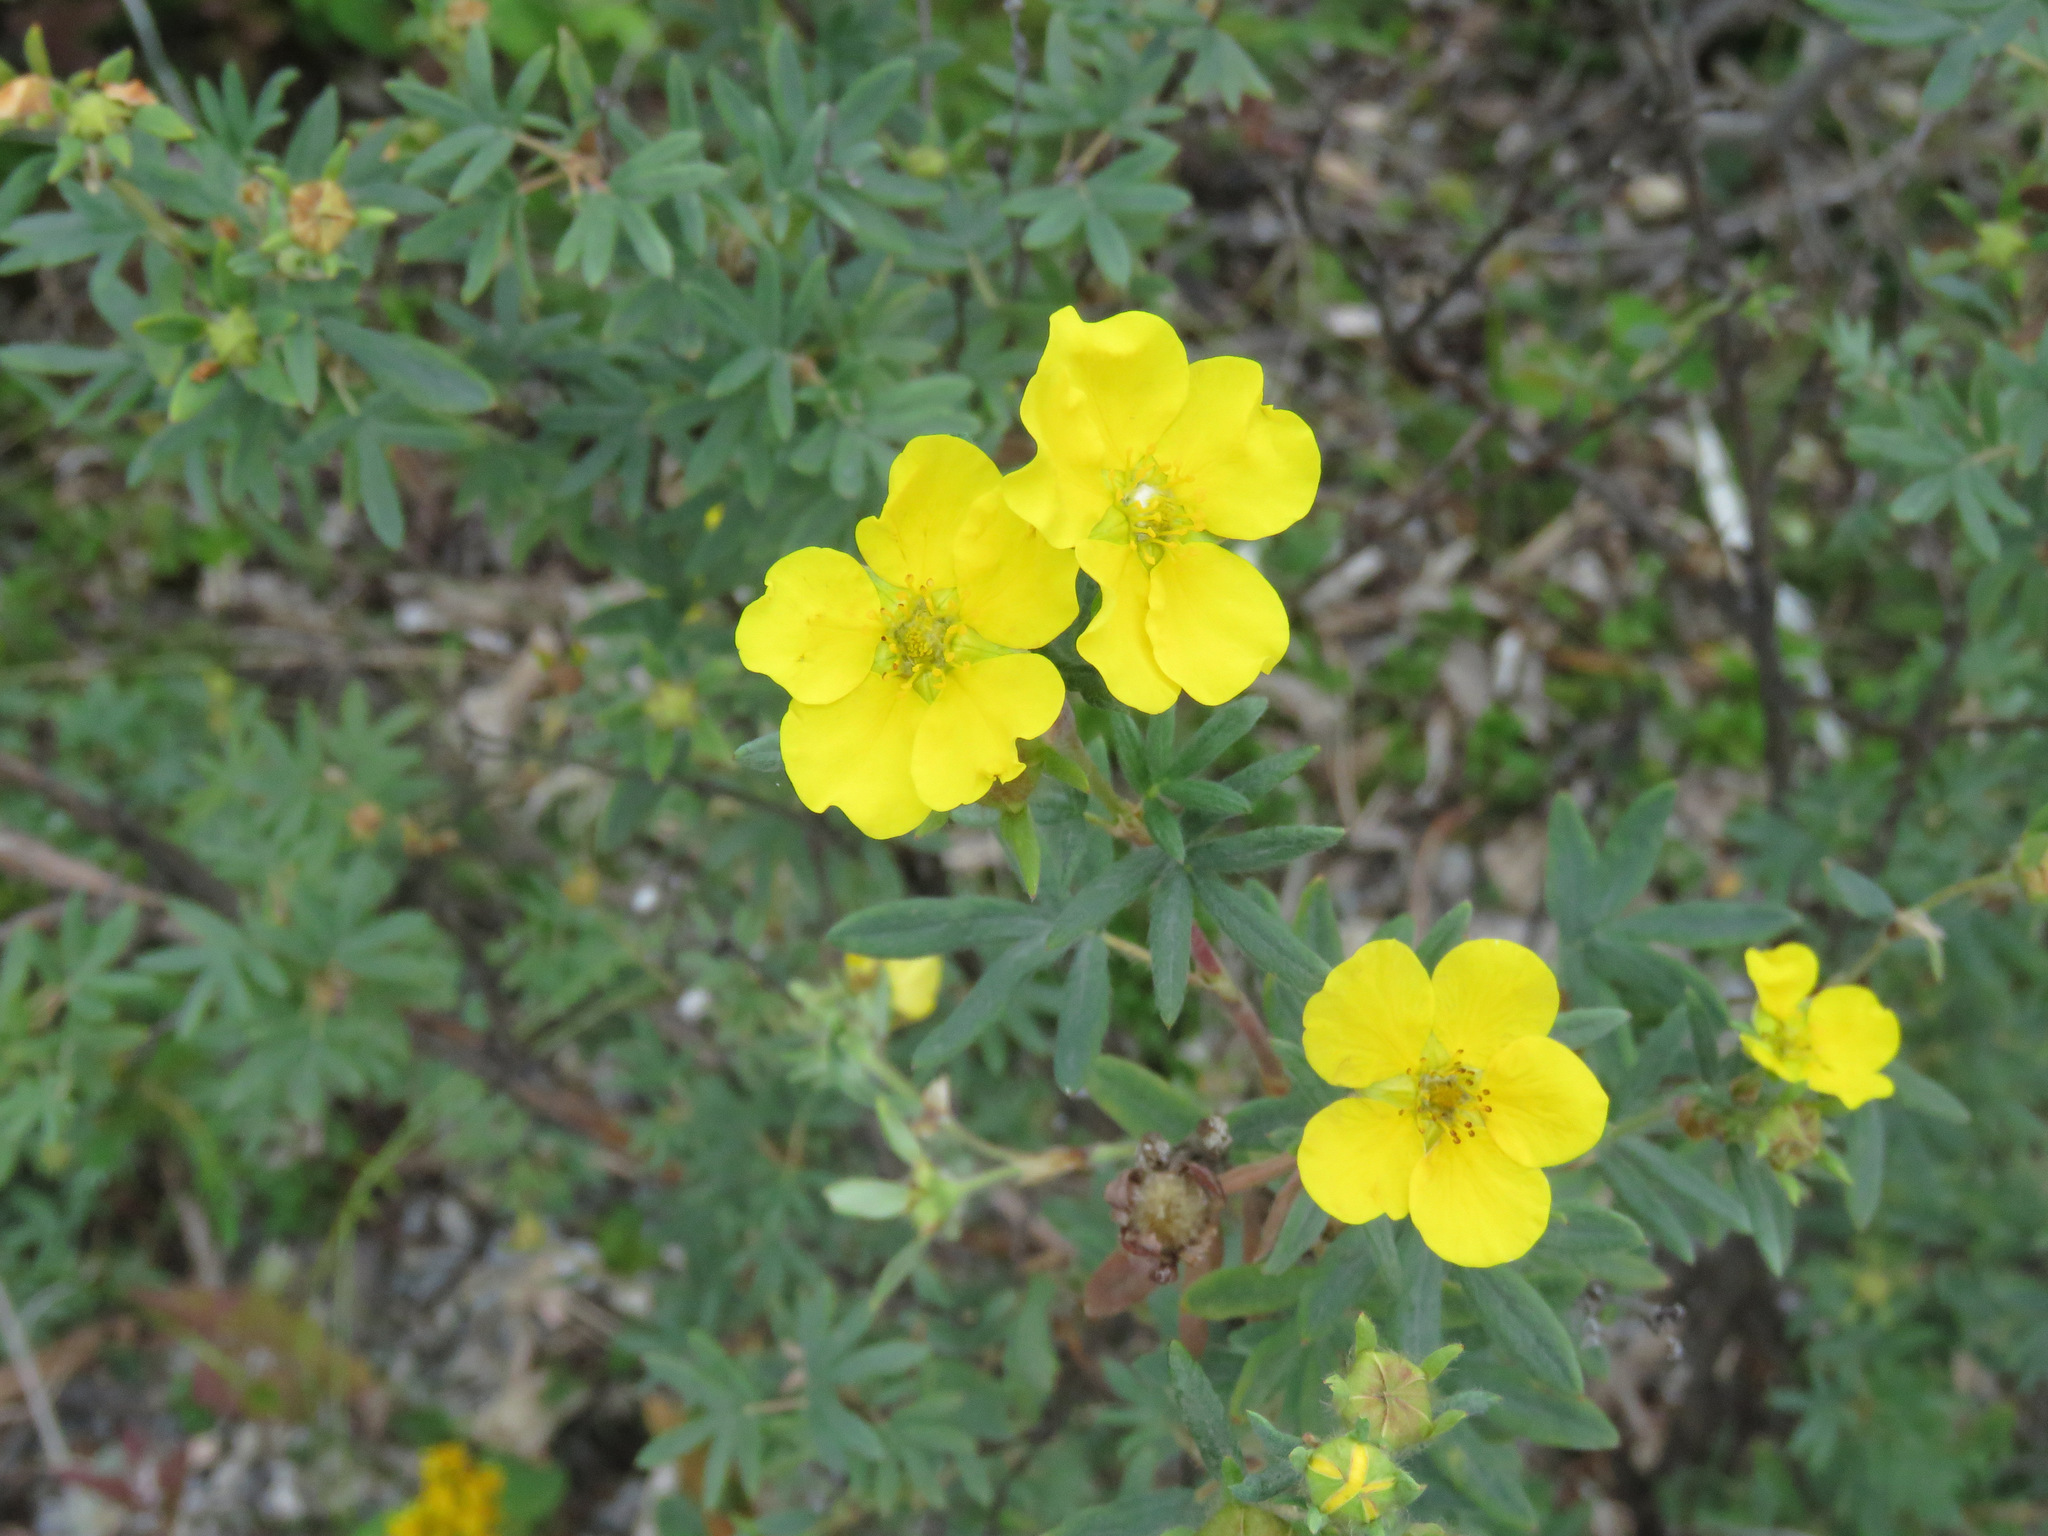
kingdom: Plantae
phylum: Tracheophyta
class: Magnoliopsida
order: Rosales
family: Rosaceae
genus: Dasiphora
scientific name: Dasiphora fruticosa
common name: Shrubby cinquefoil
